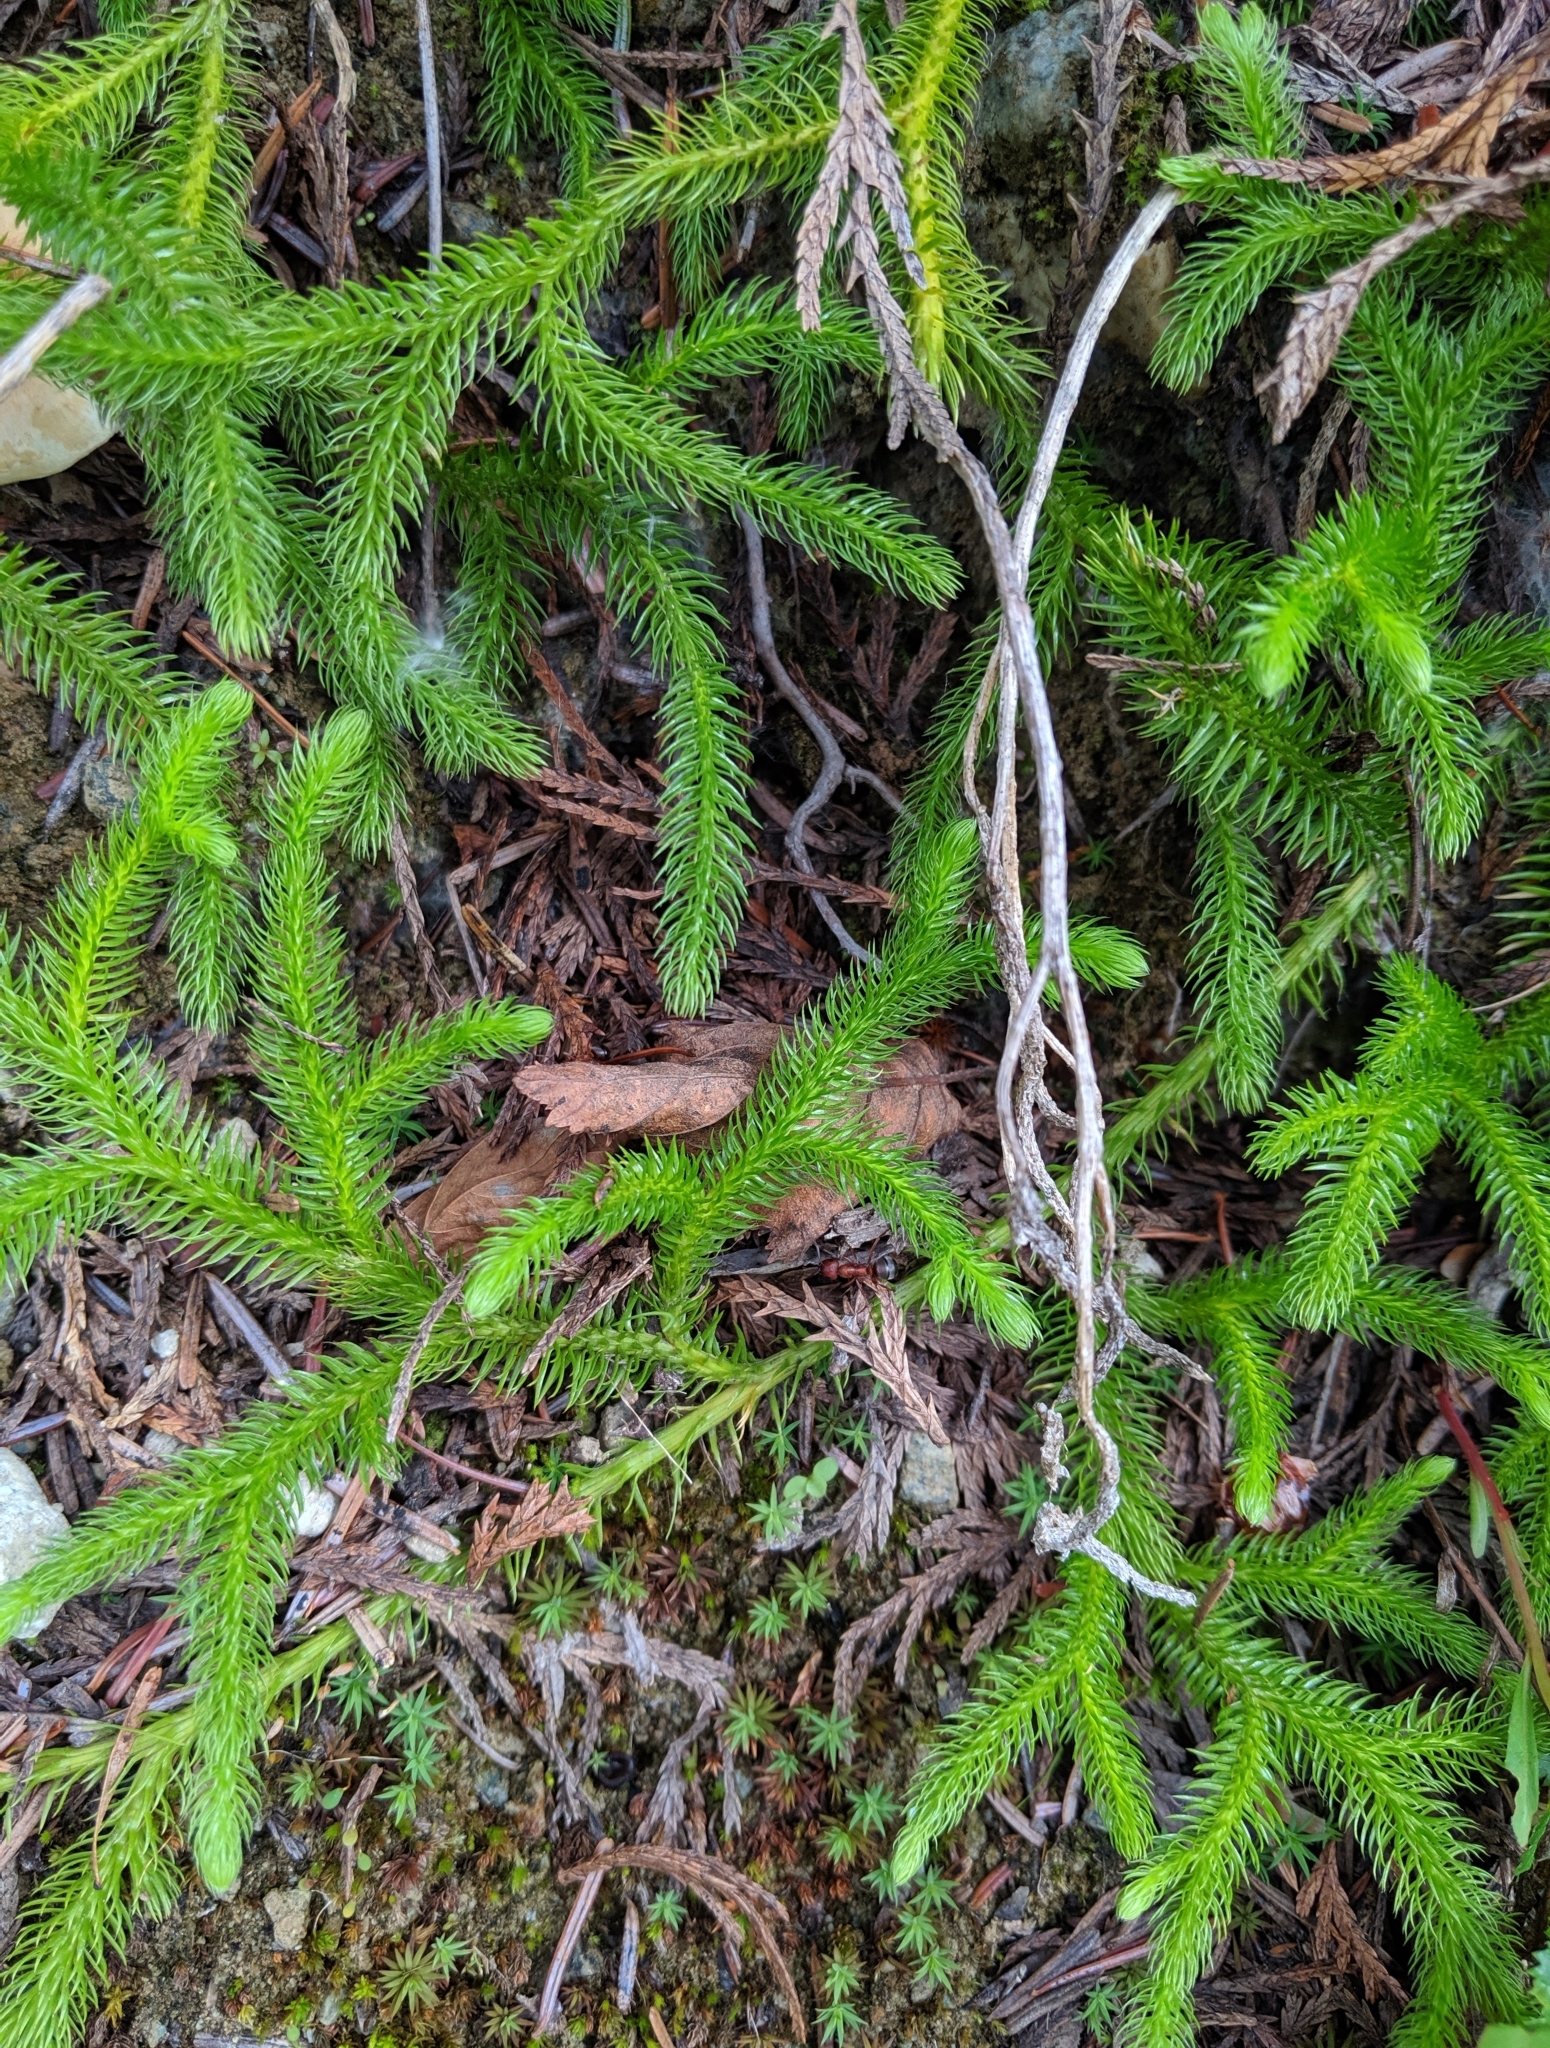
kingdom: Plantae
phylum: Tracheophyta
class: Lycopodiopsida
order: Lycopodiales
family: Lycopodiaceae
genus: Lycopodium
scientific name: Lycopodium clavatum
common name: Stag's-horn clubmoss
